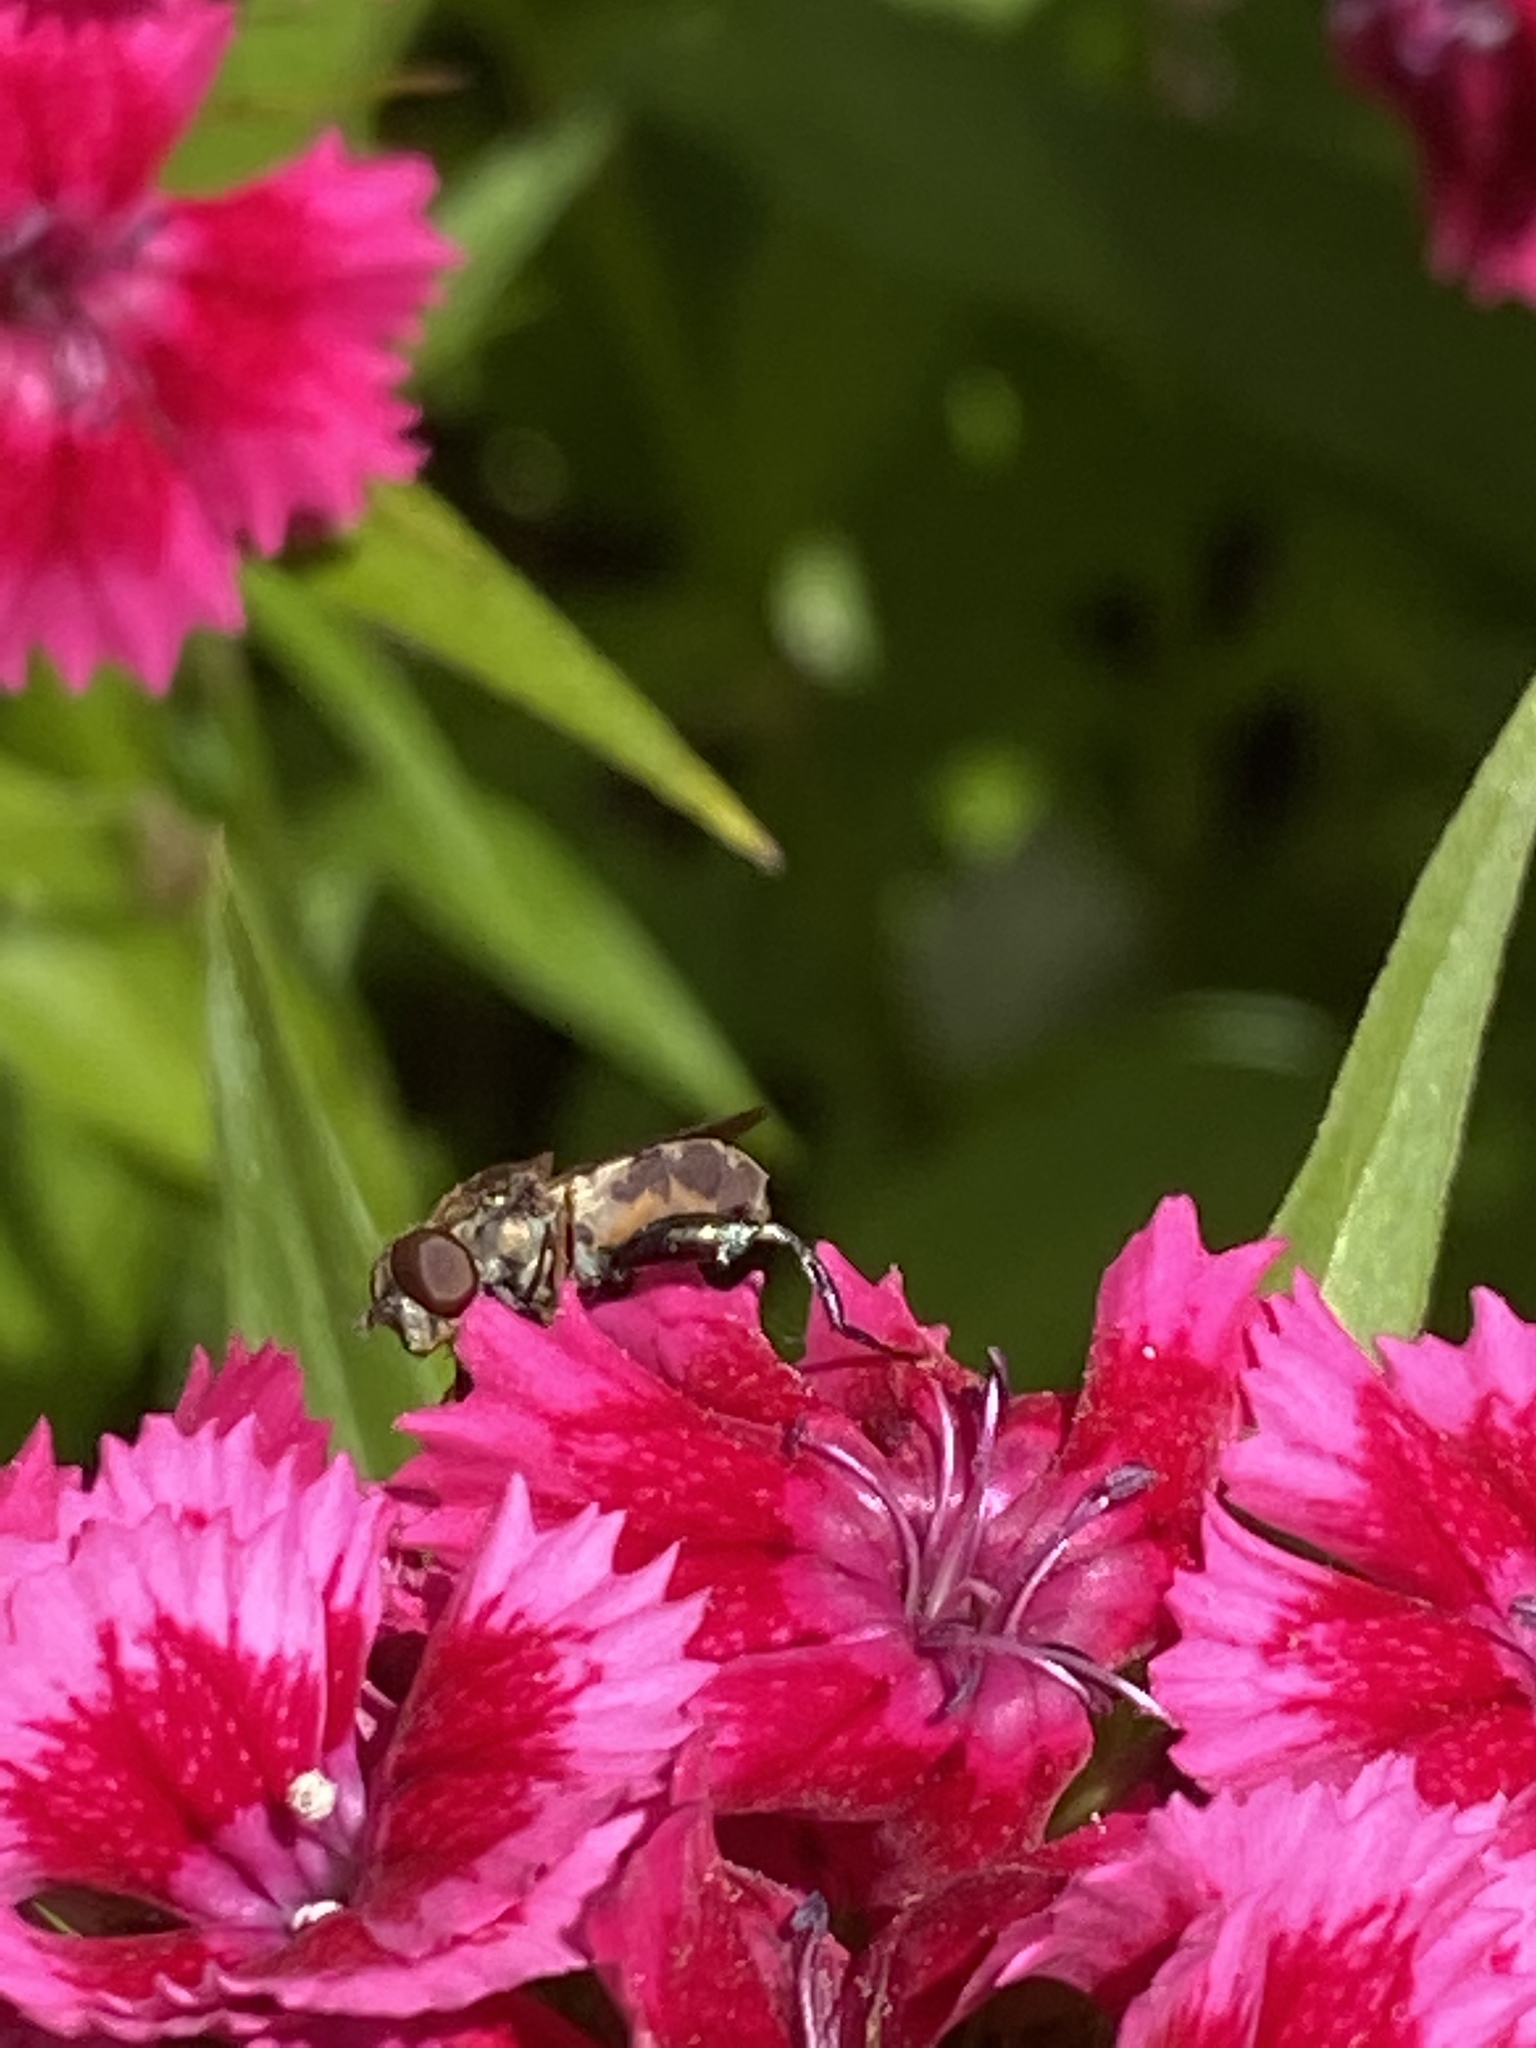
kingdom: Animalia
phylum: Arthropoda
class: Insecta
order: Diptera
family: Syrphidae
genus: Syritta
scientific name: Syritta pipiens
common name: Hover fly
